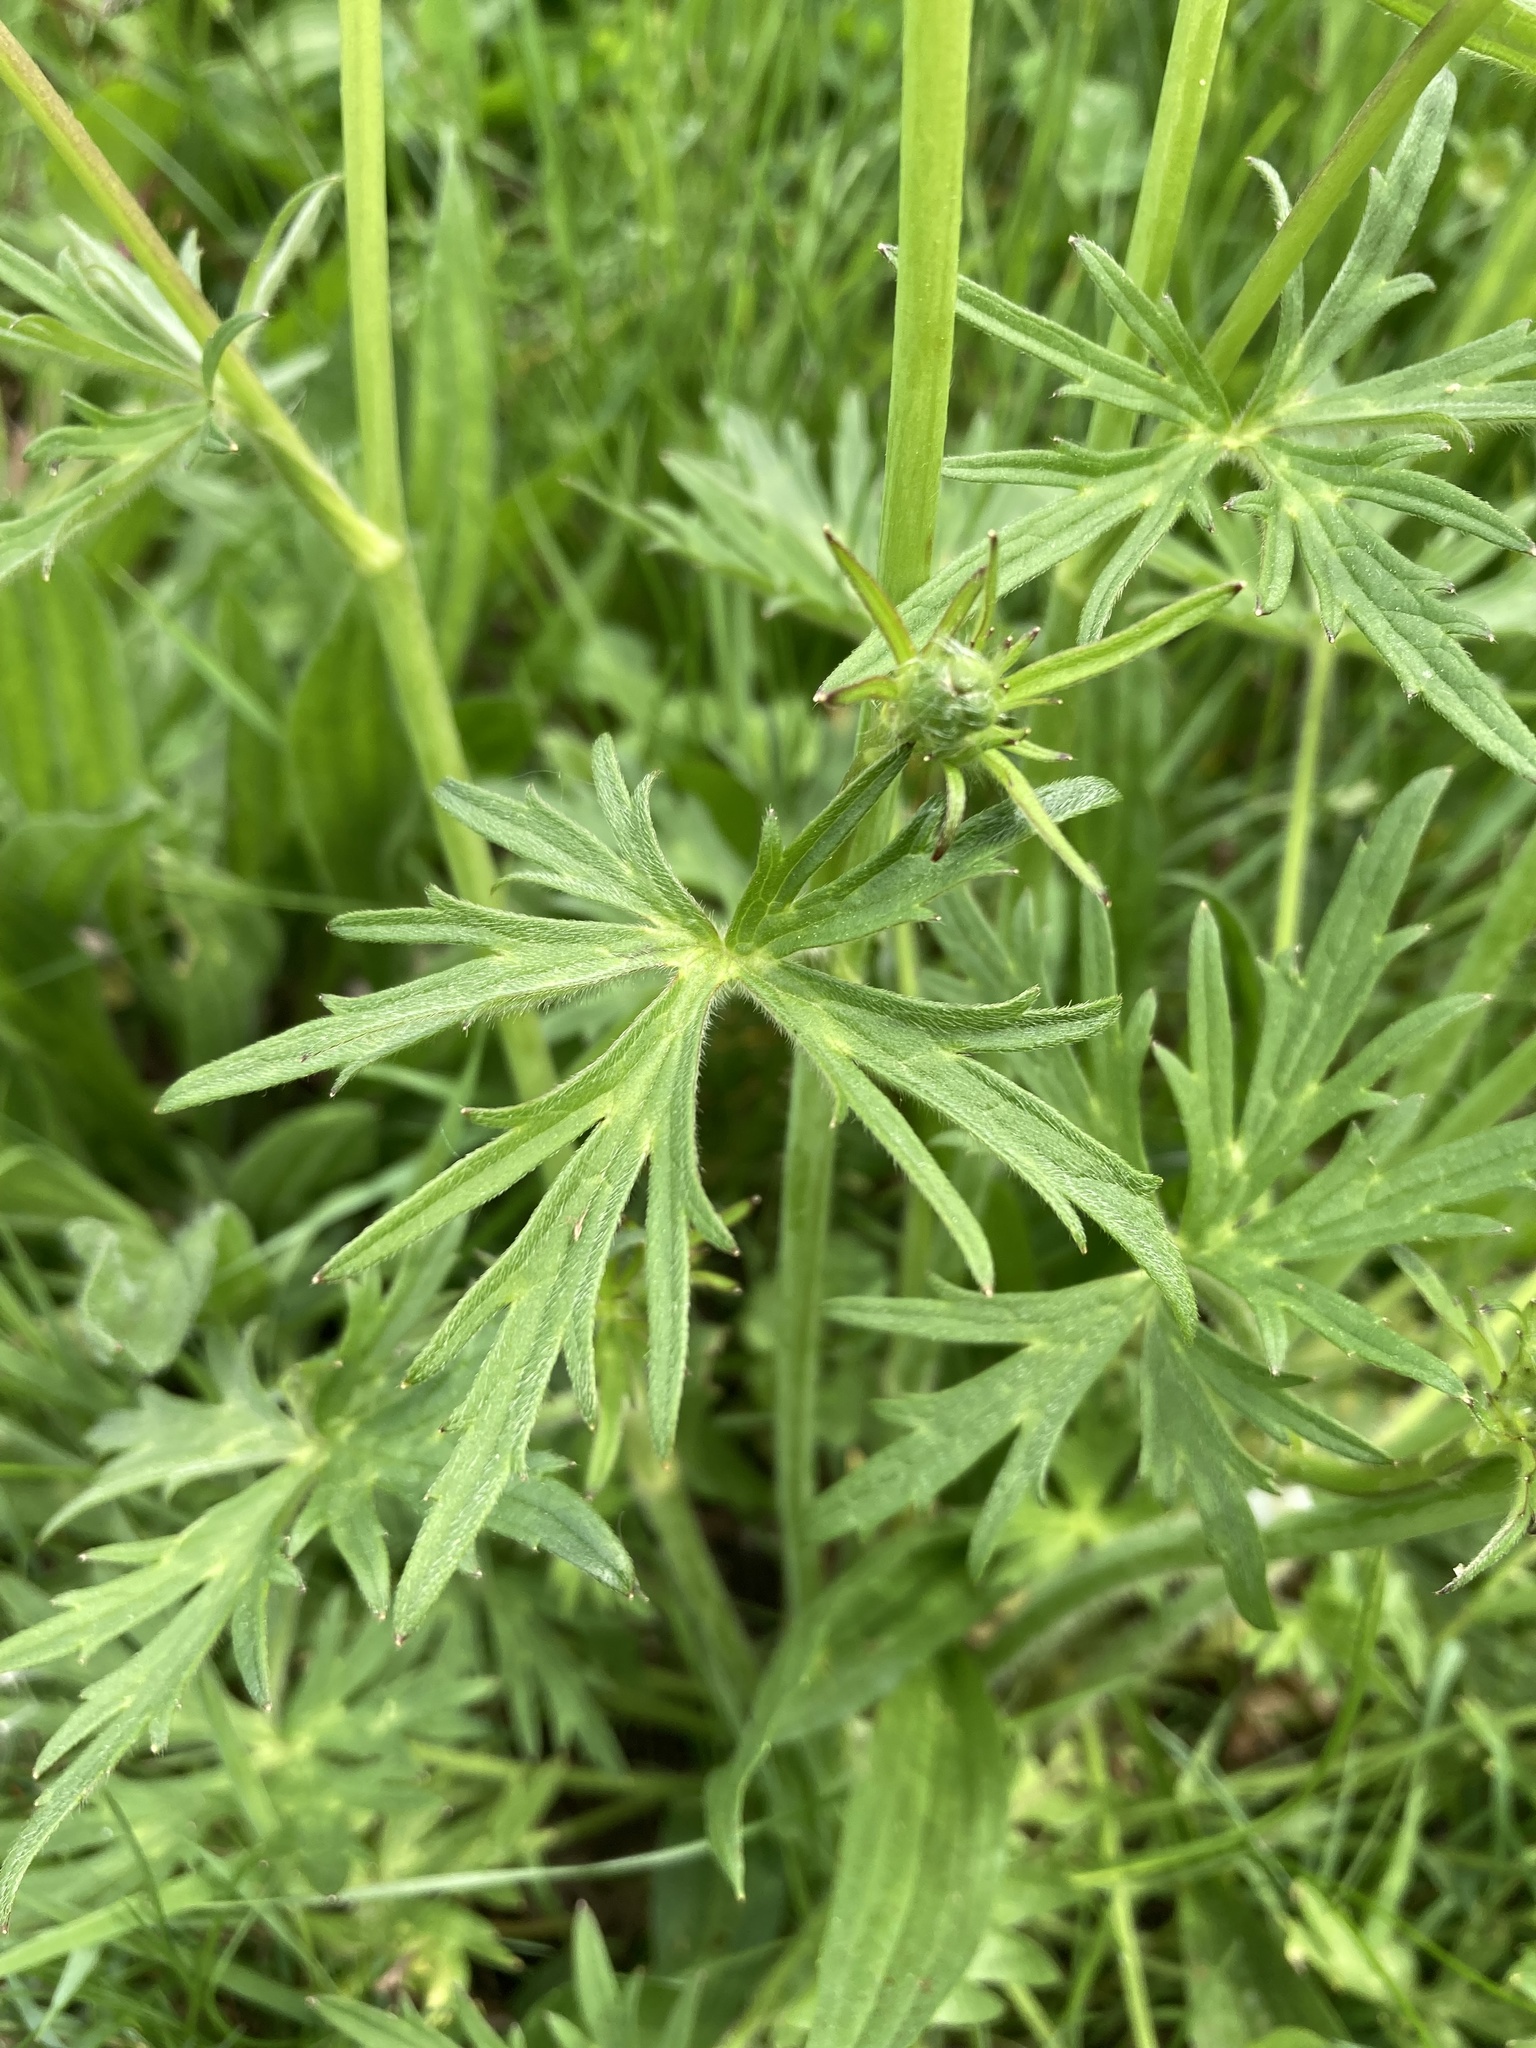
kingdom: Plantae
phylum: Tracheophyta
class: Magnoliopsida
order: Ranunculales
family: Ranunculaceae
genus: Ranunculus
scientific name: Ranunculus acris
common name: Meadow buttercup
